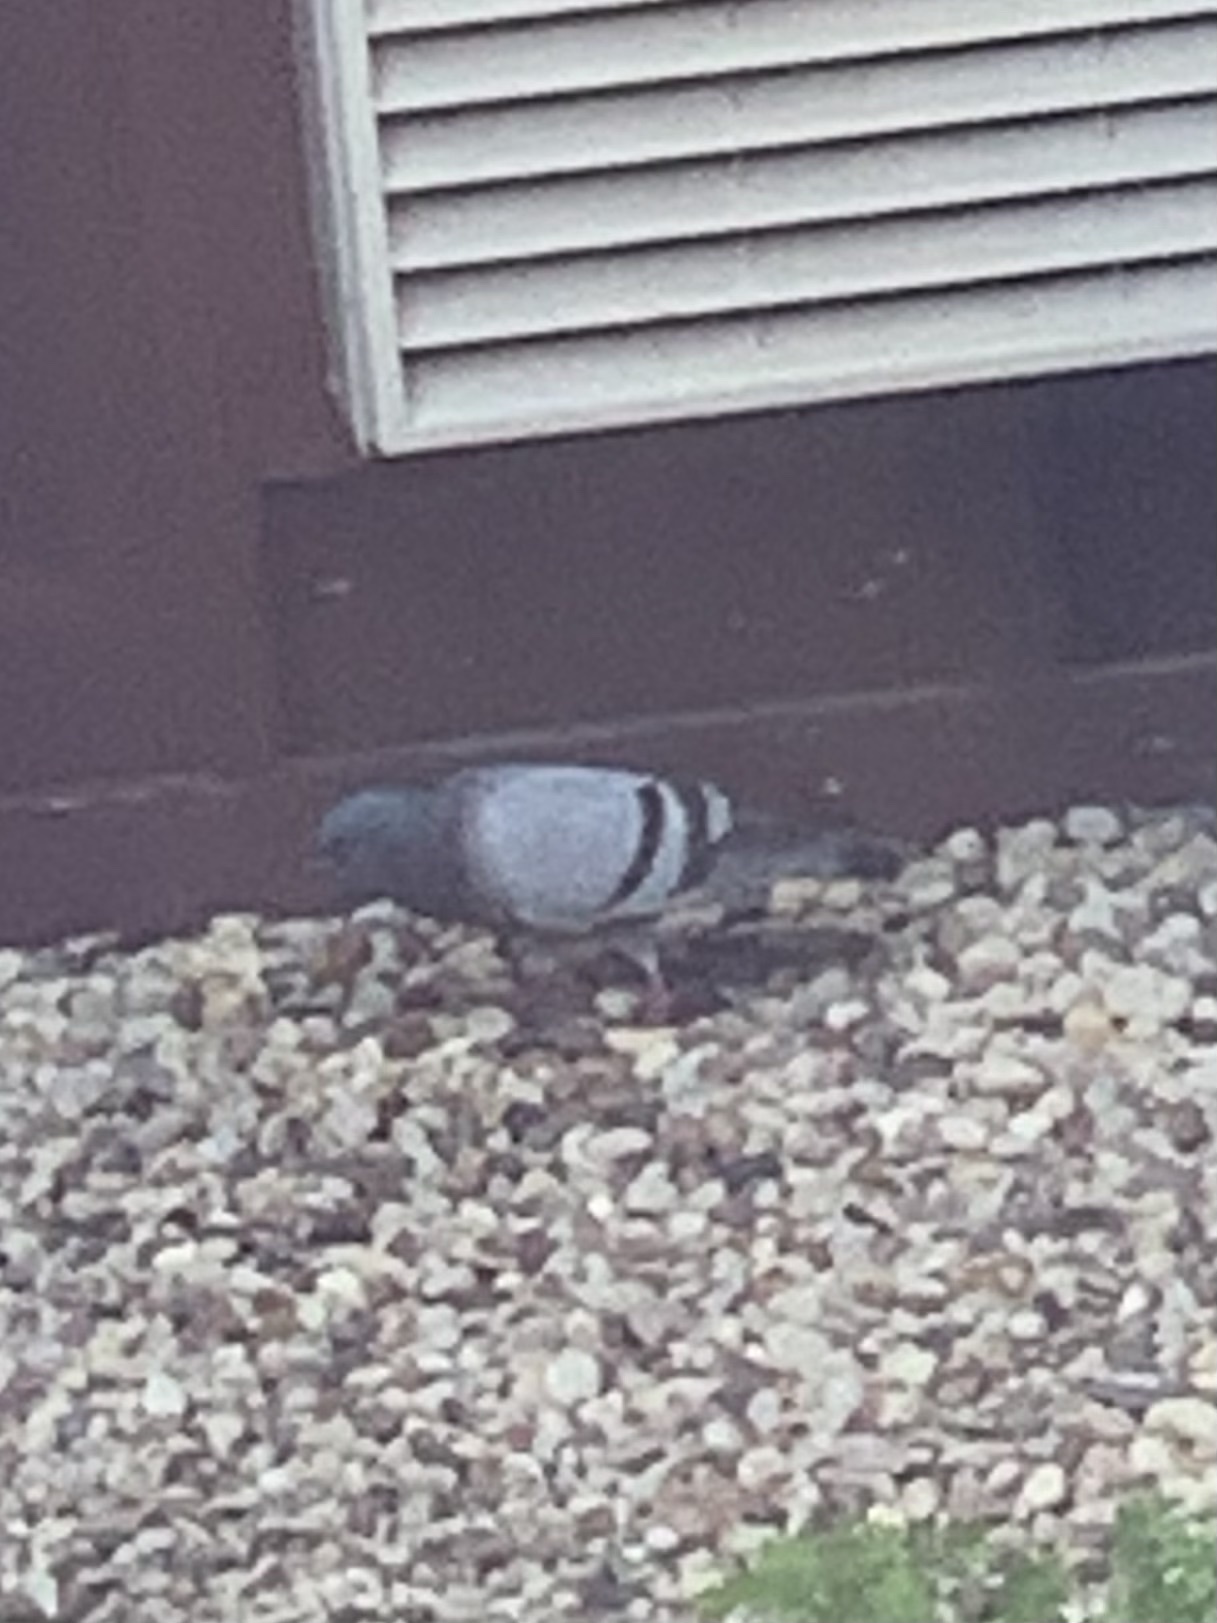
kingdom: Animalia
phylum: Chordata
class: Aves
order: Columbiformes
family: Columbidae
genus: Columba
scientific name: Columba livia
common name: Rock pigeon
